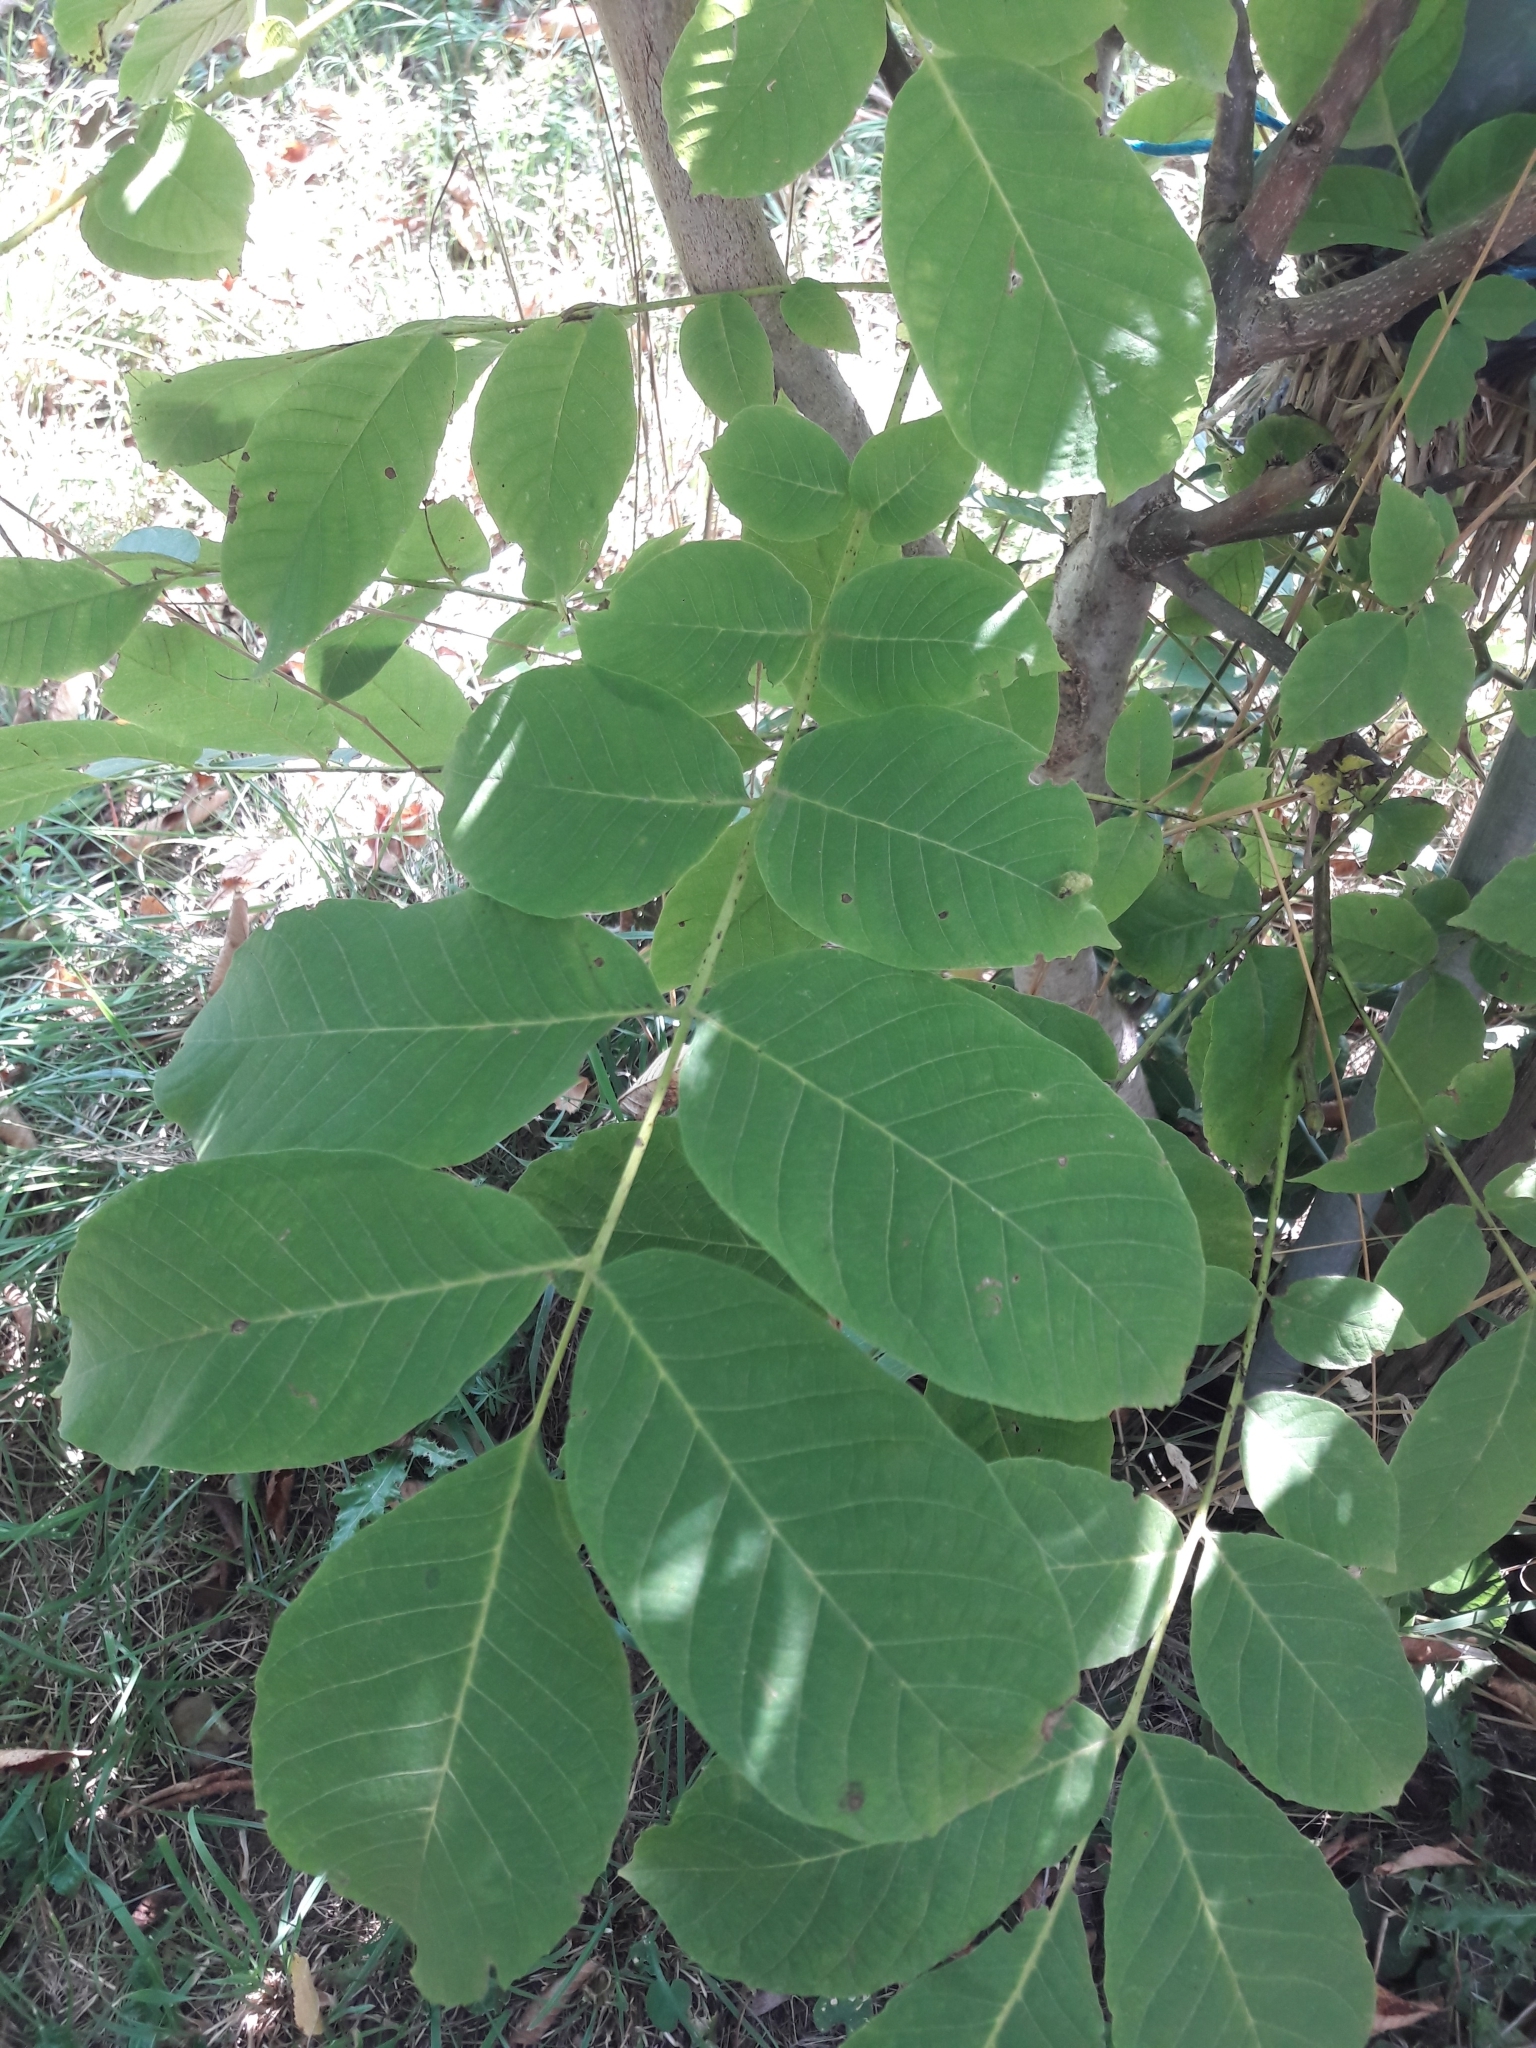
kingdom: Plantae
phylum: Tracheophyta
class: Magnoliopsida
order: Fagales
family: Juglandaceae
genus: Juglans
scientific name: Juglans regia
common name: Walnut
